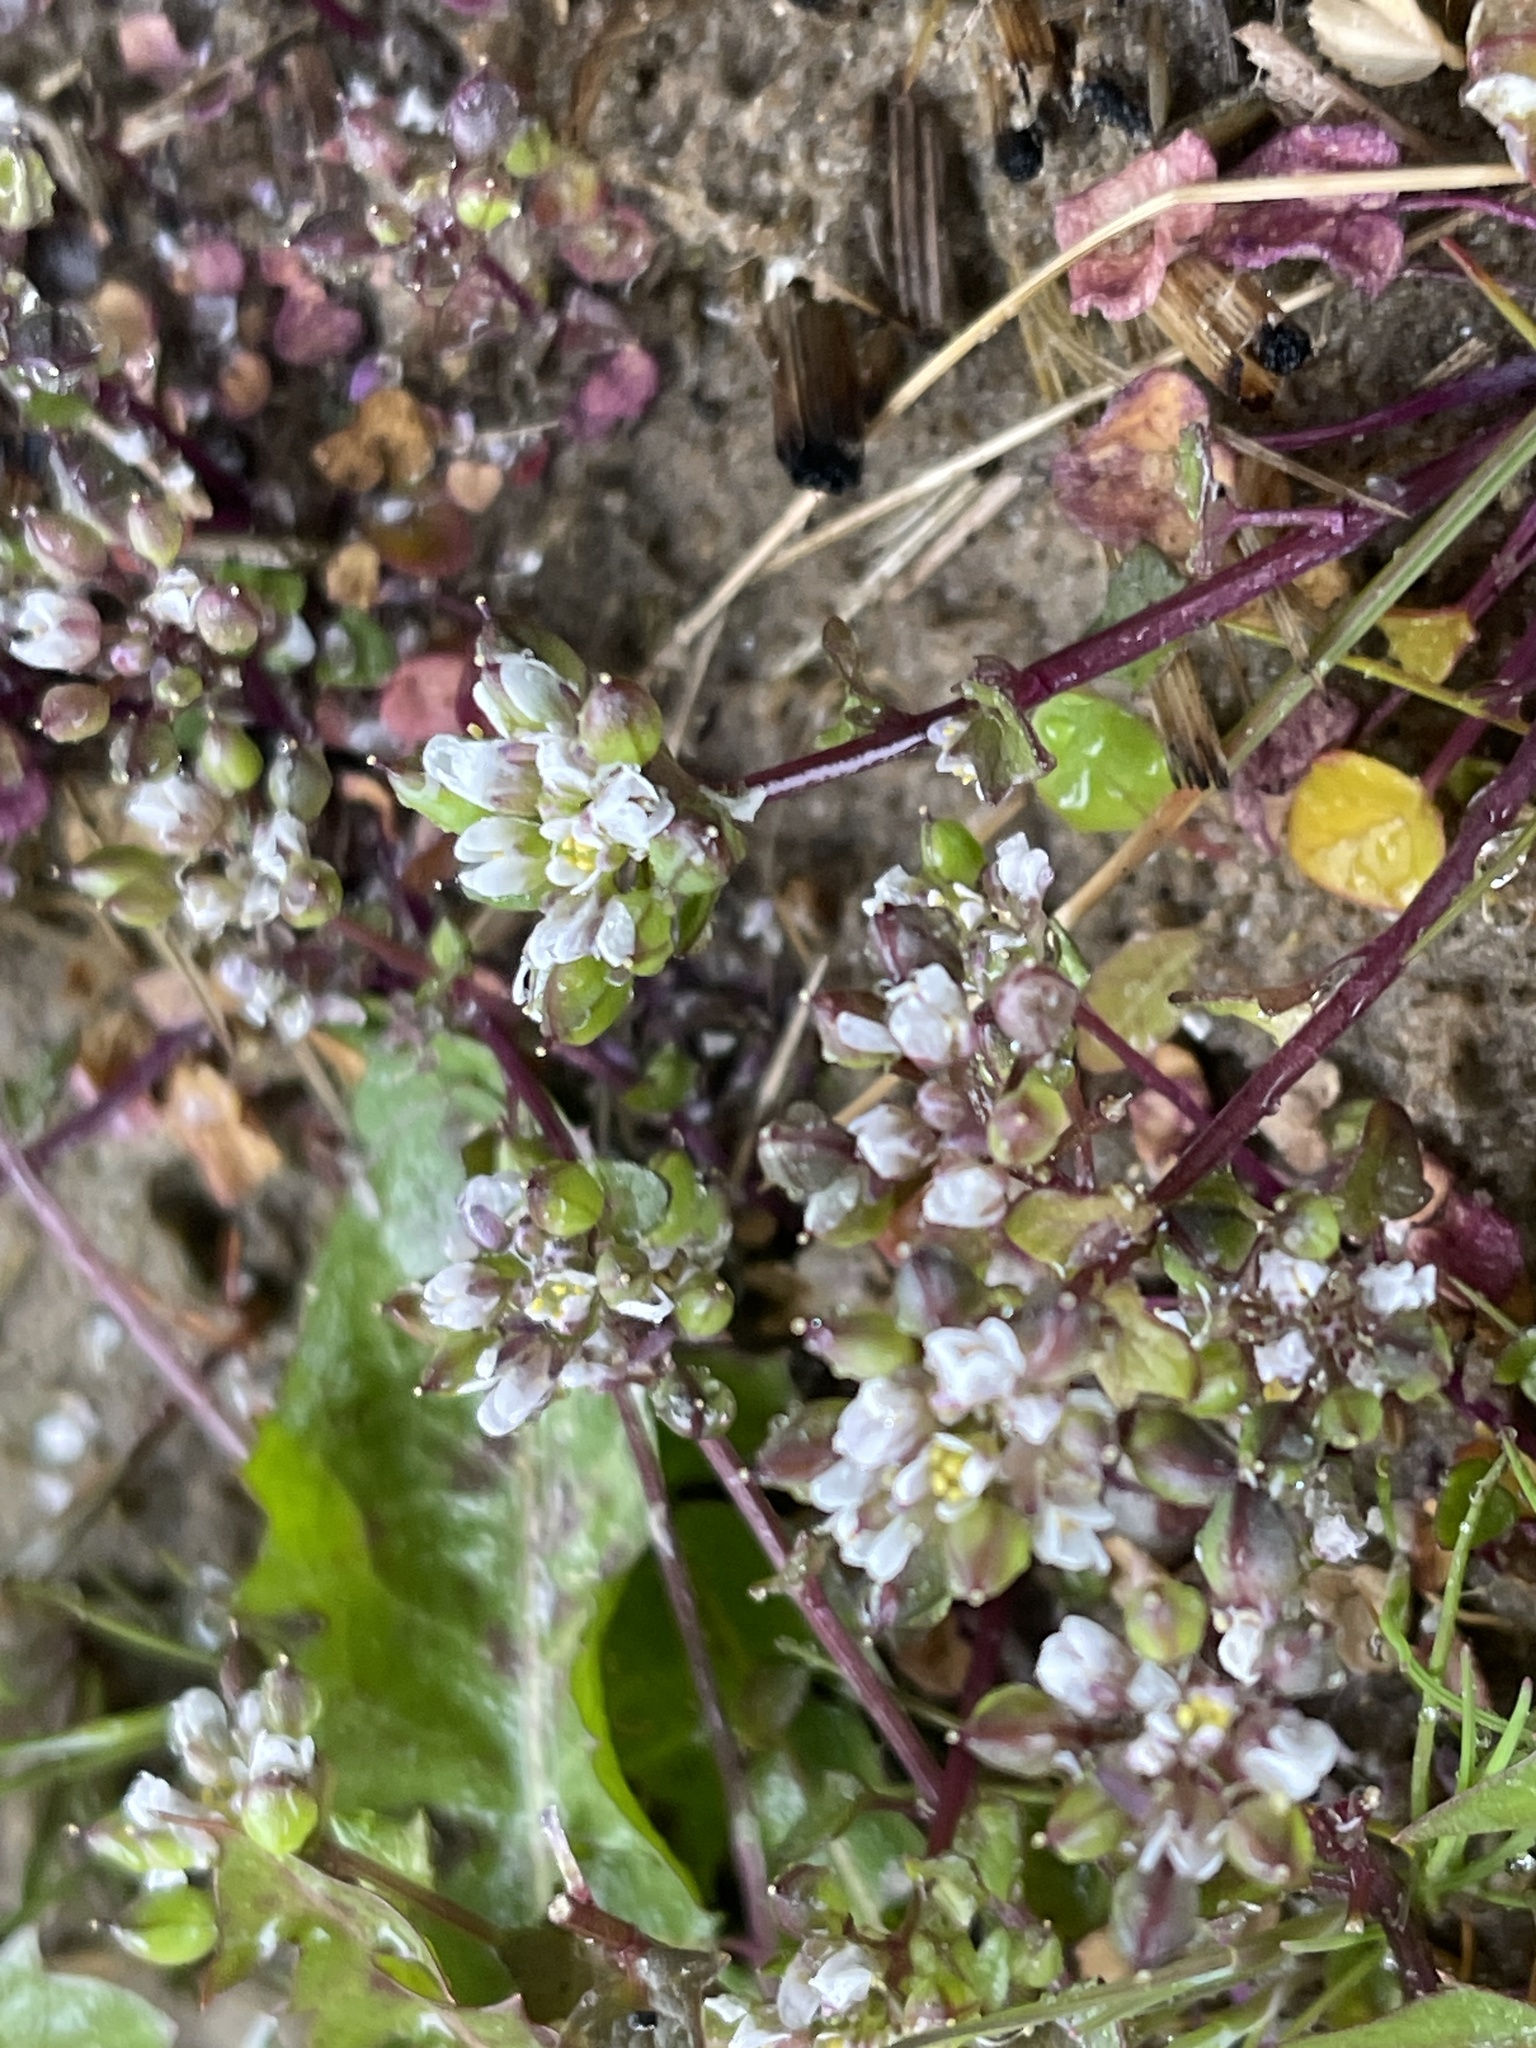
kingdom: Plantae
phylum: Tracheophyta
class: Magnoliopsida
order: Brassicales
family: Brassicaceae
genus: Cochlearia
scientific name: Cochlearia danica
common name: Early scurvygrass
